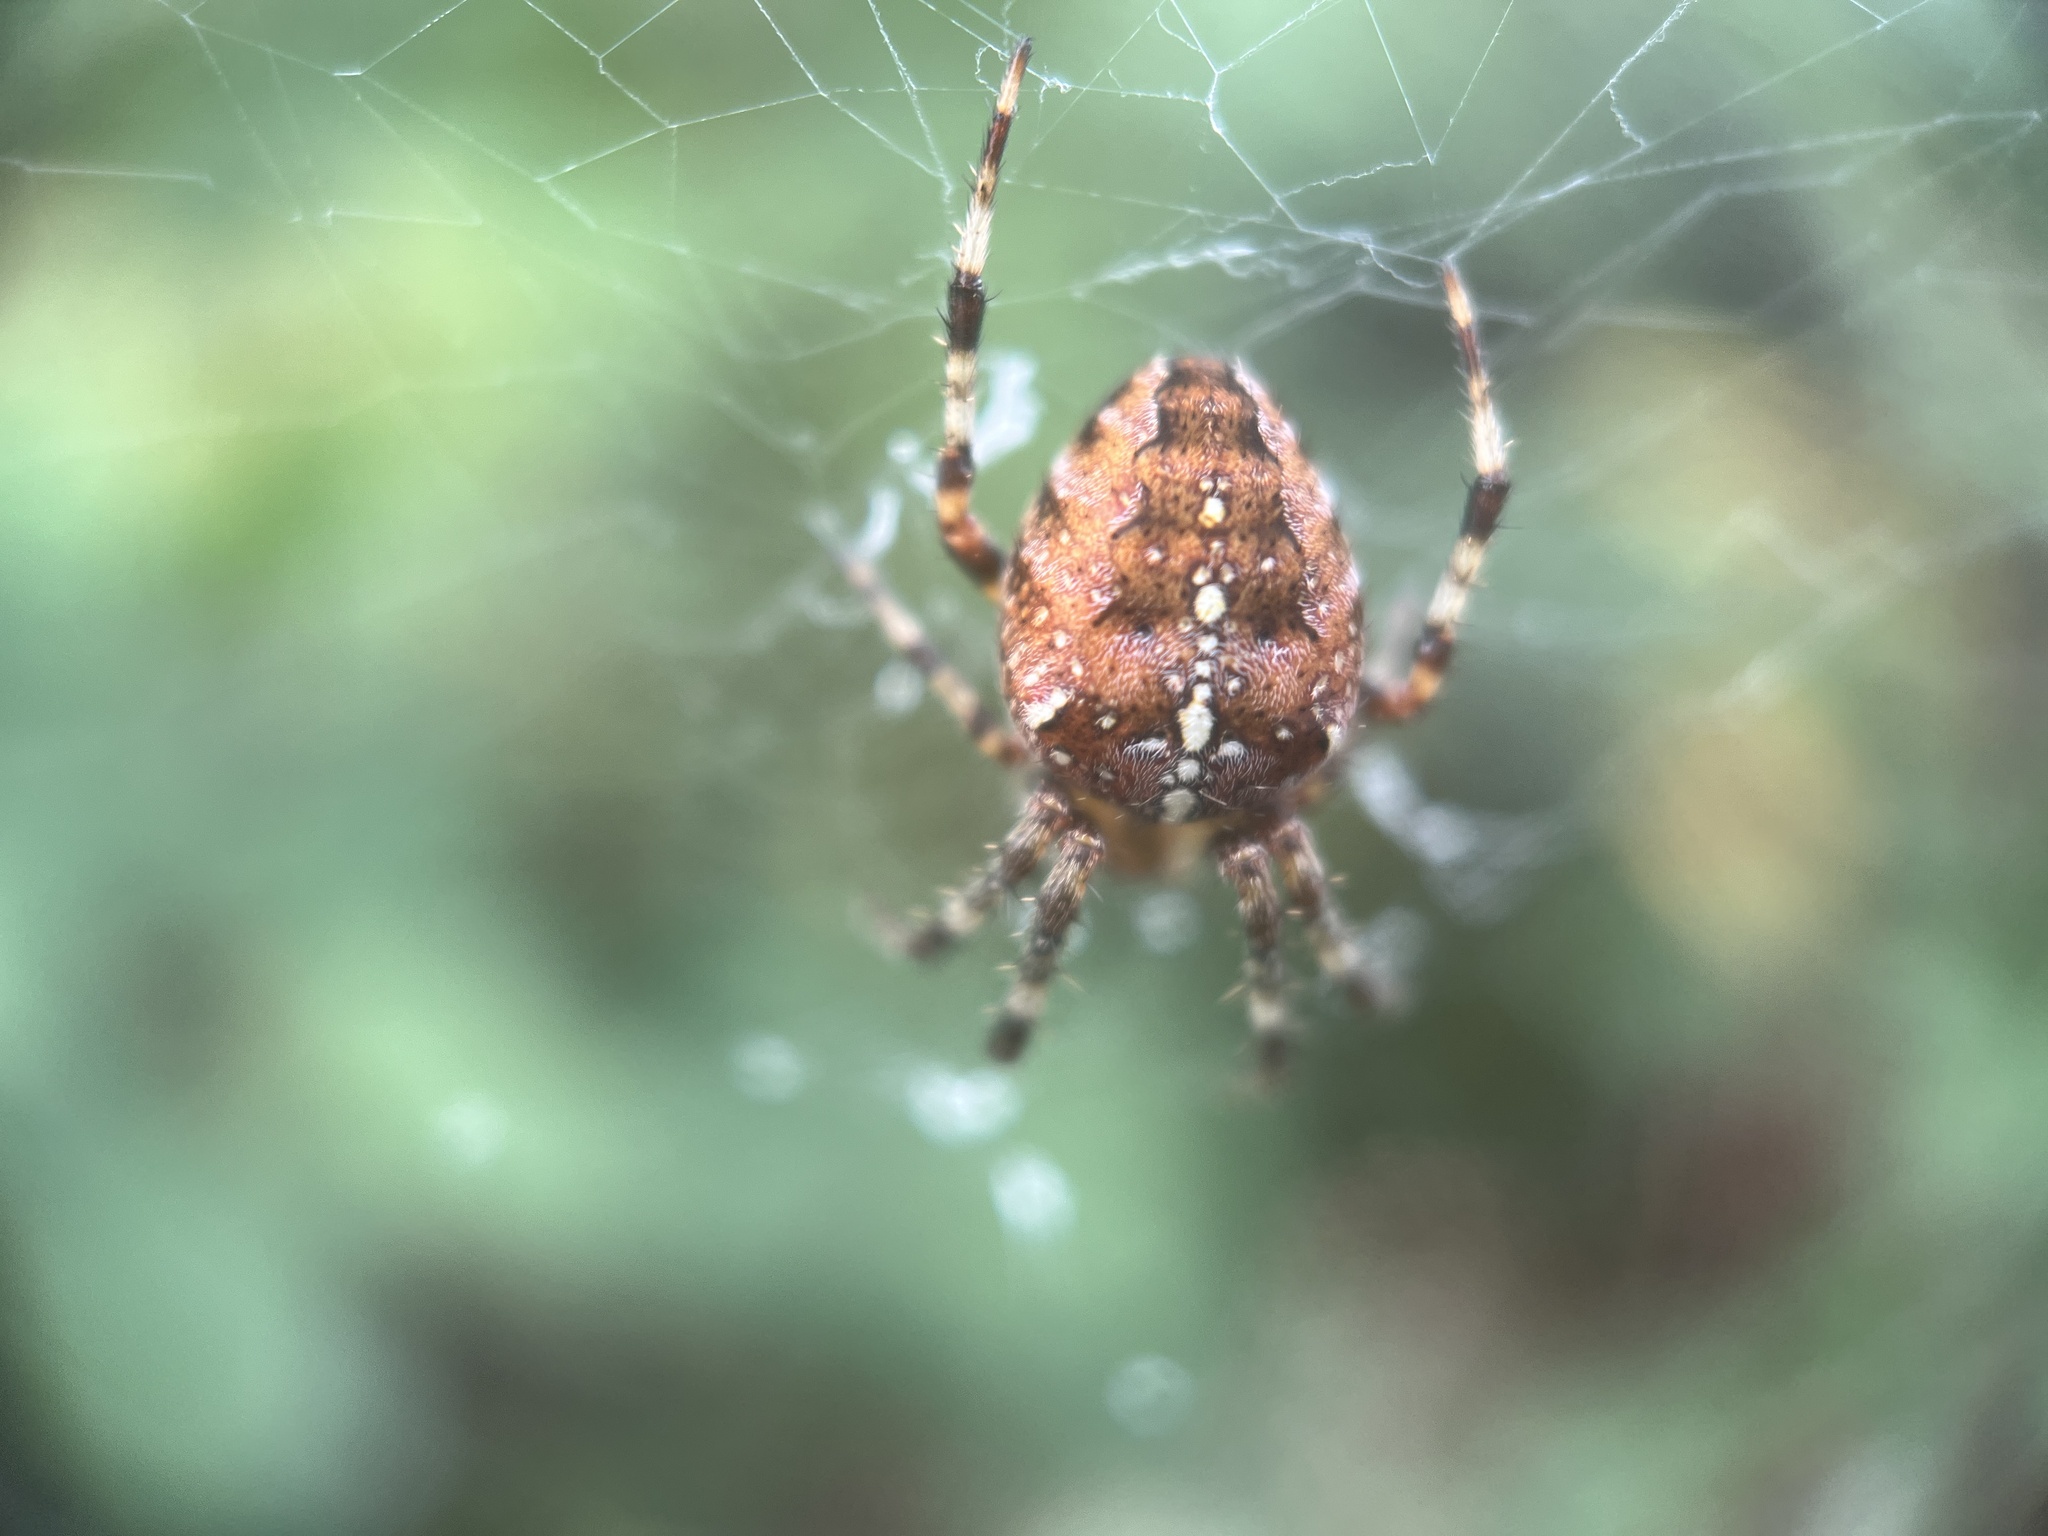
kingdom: Animalia
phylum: Arthropoda
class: Arachnida
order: Araneae
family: Araneidae
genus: Araneus
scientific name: Araneus diadematus
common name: Cross orbweaver
